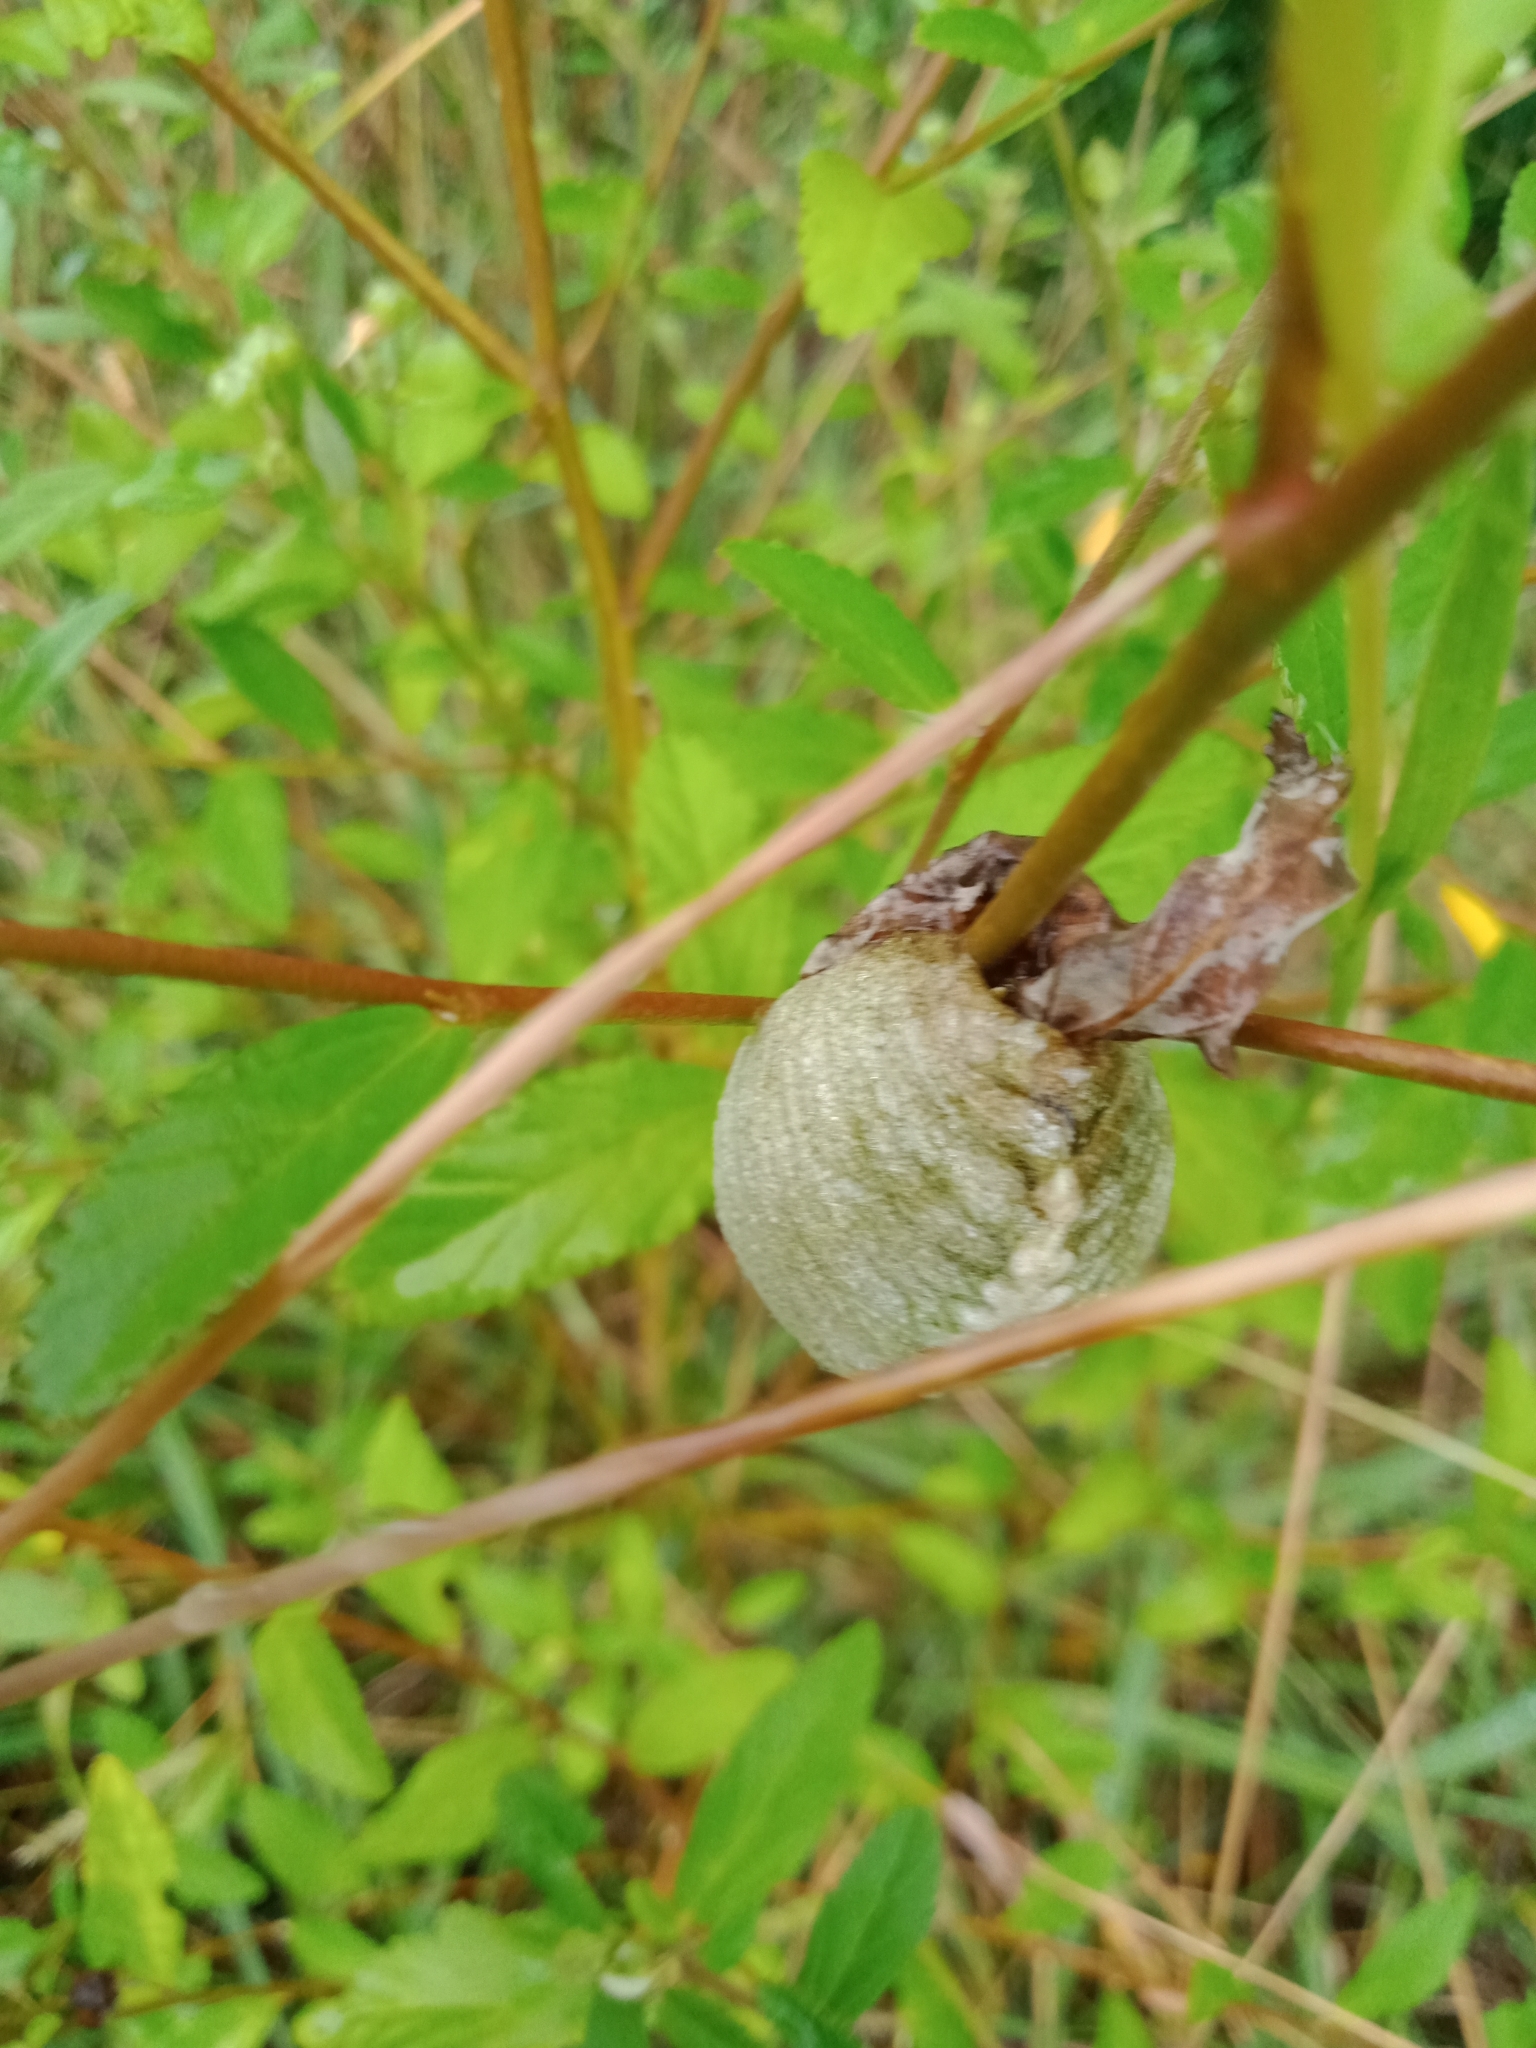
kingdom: Animalia
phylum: Arthropoda
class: Insecta
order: Mantodea
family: Mantidae
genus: Archimantis
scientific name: Archimantis latistyla
